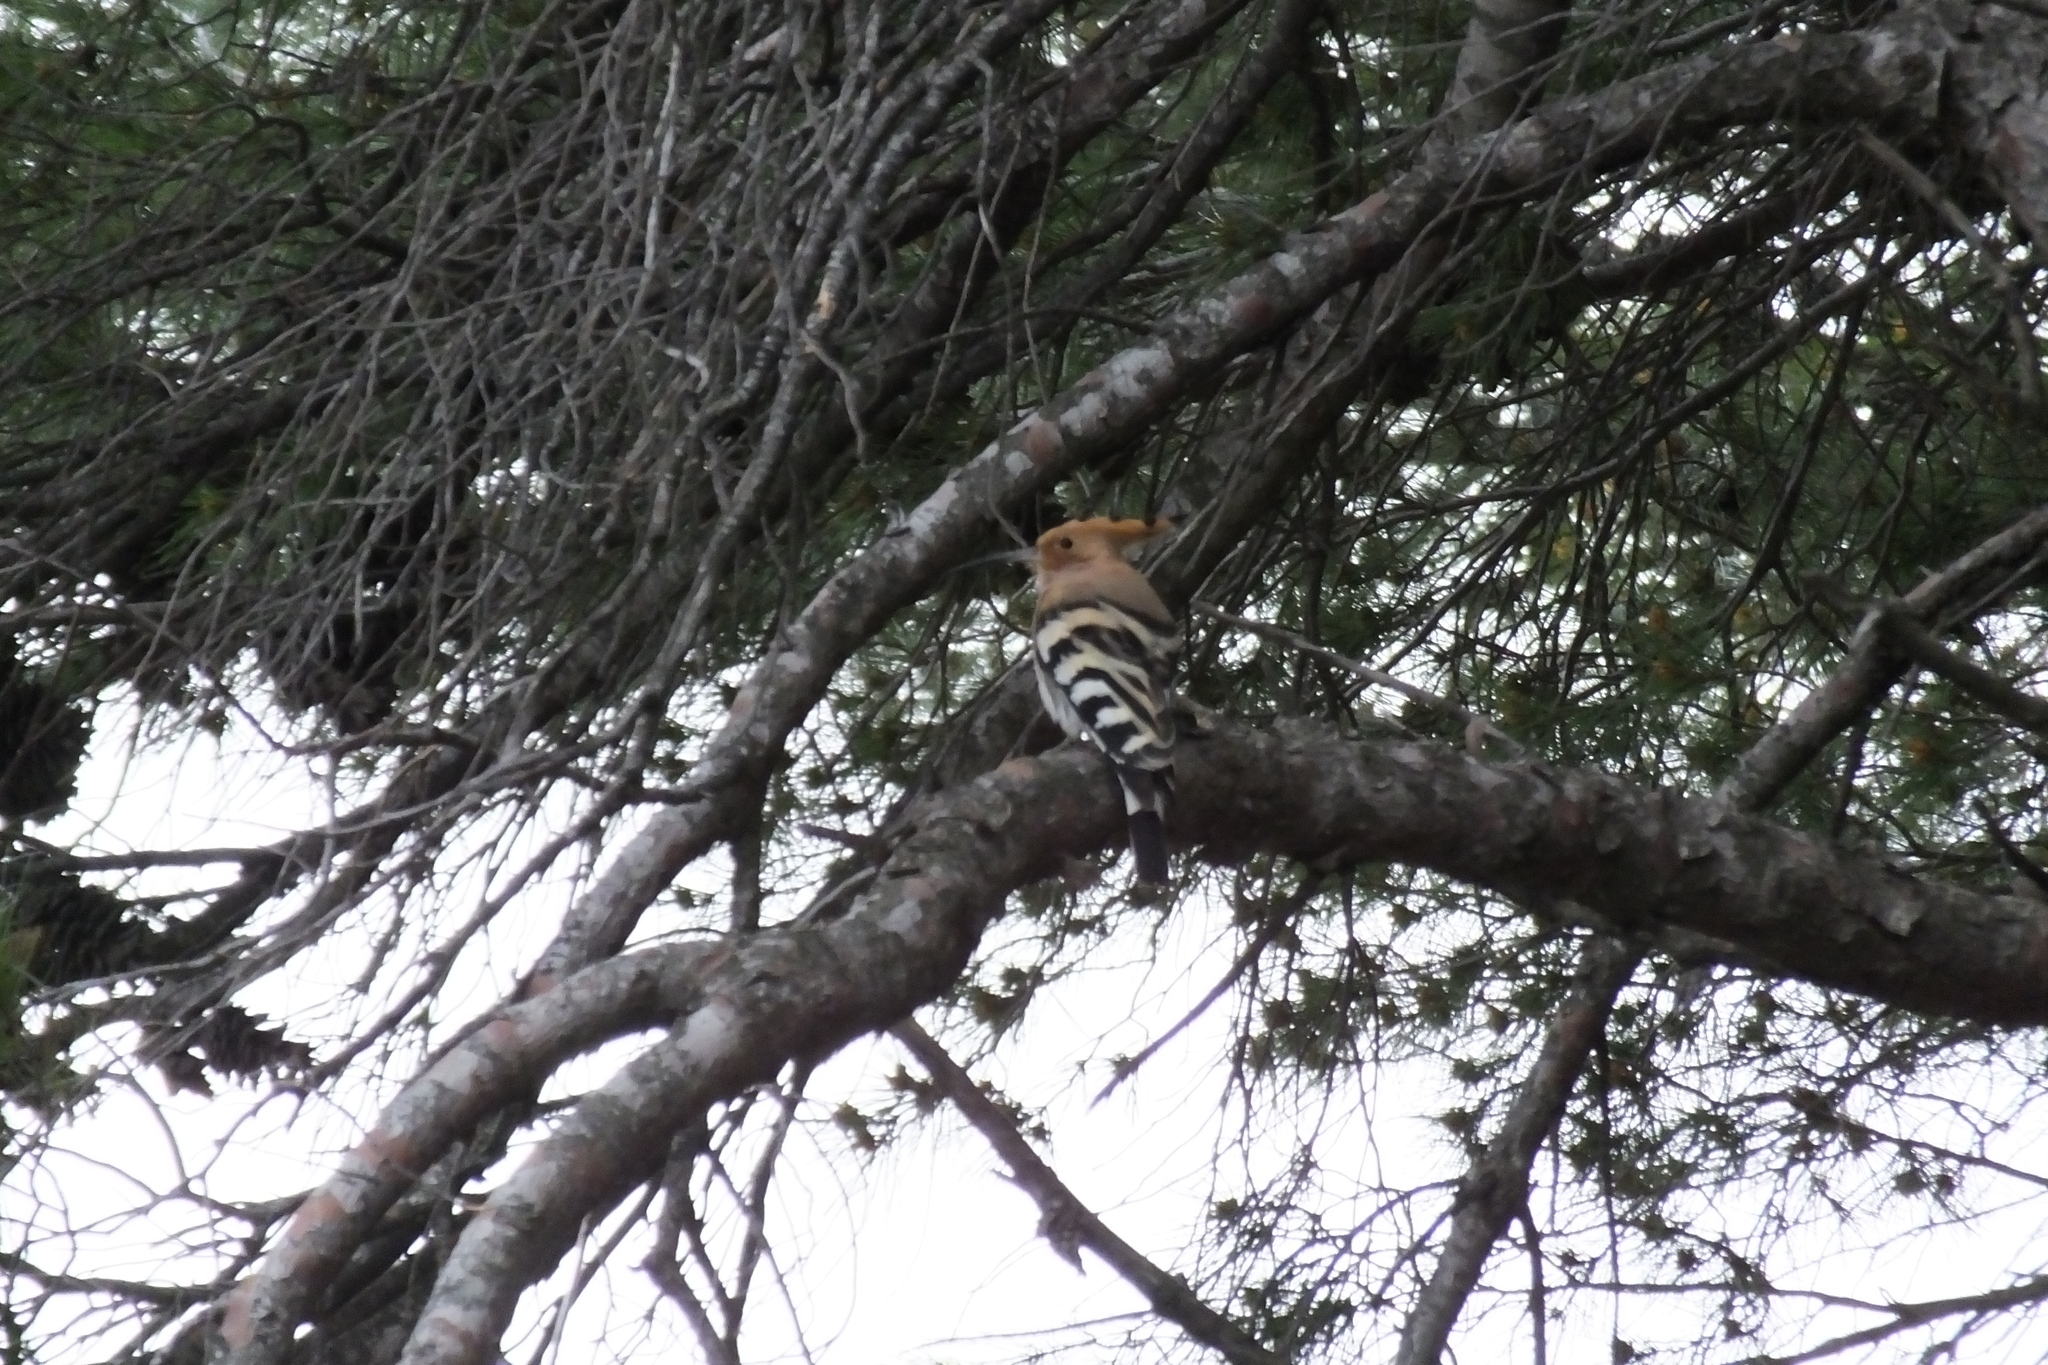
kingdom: Animalia
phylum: Chordata
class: Aves
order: Bucerotiformes
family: Upupidae
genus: Upupa
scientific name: Upupa epops
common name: Eurasian hoopoe
